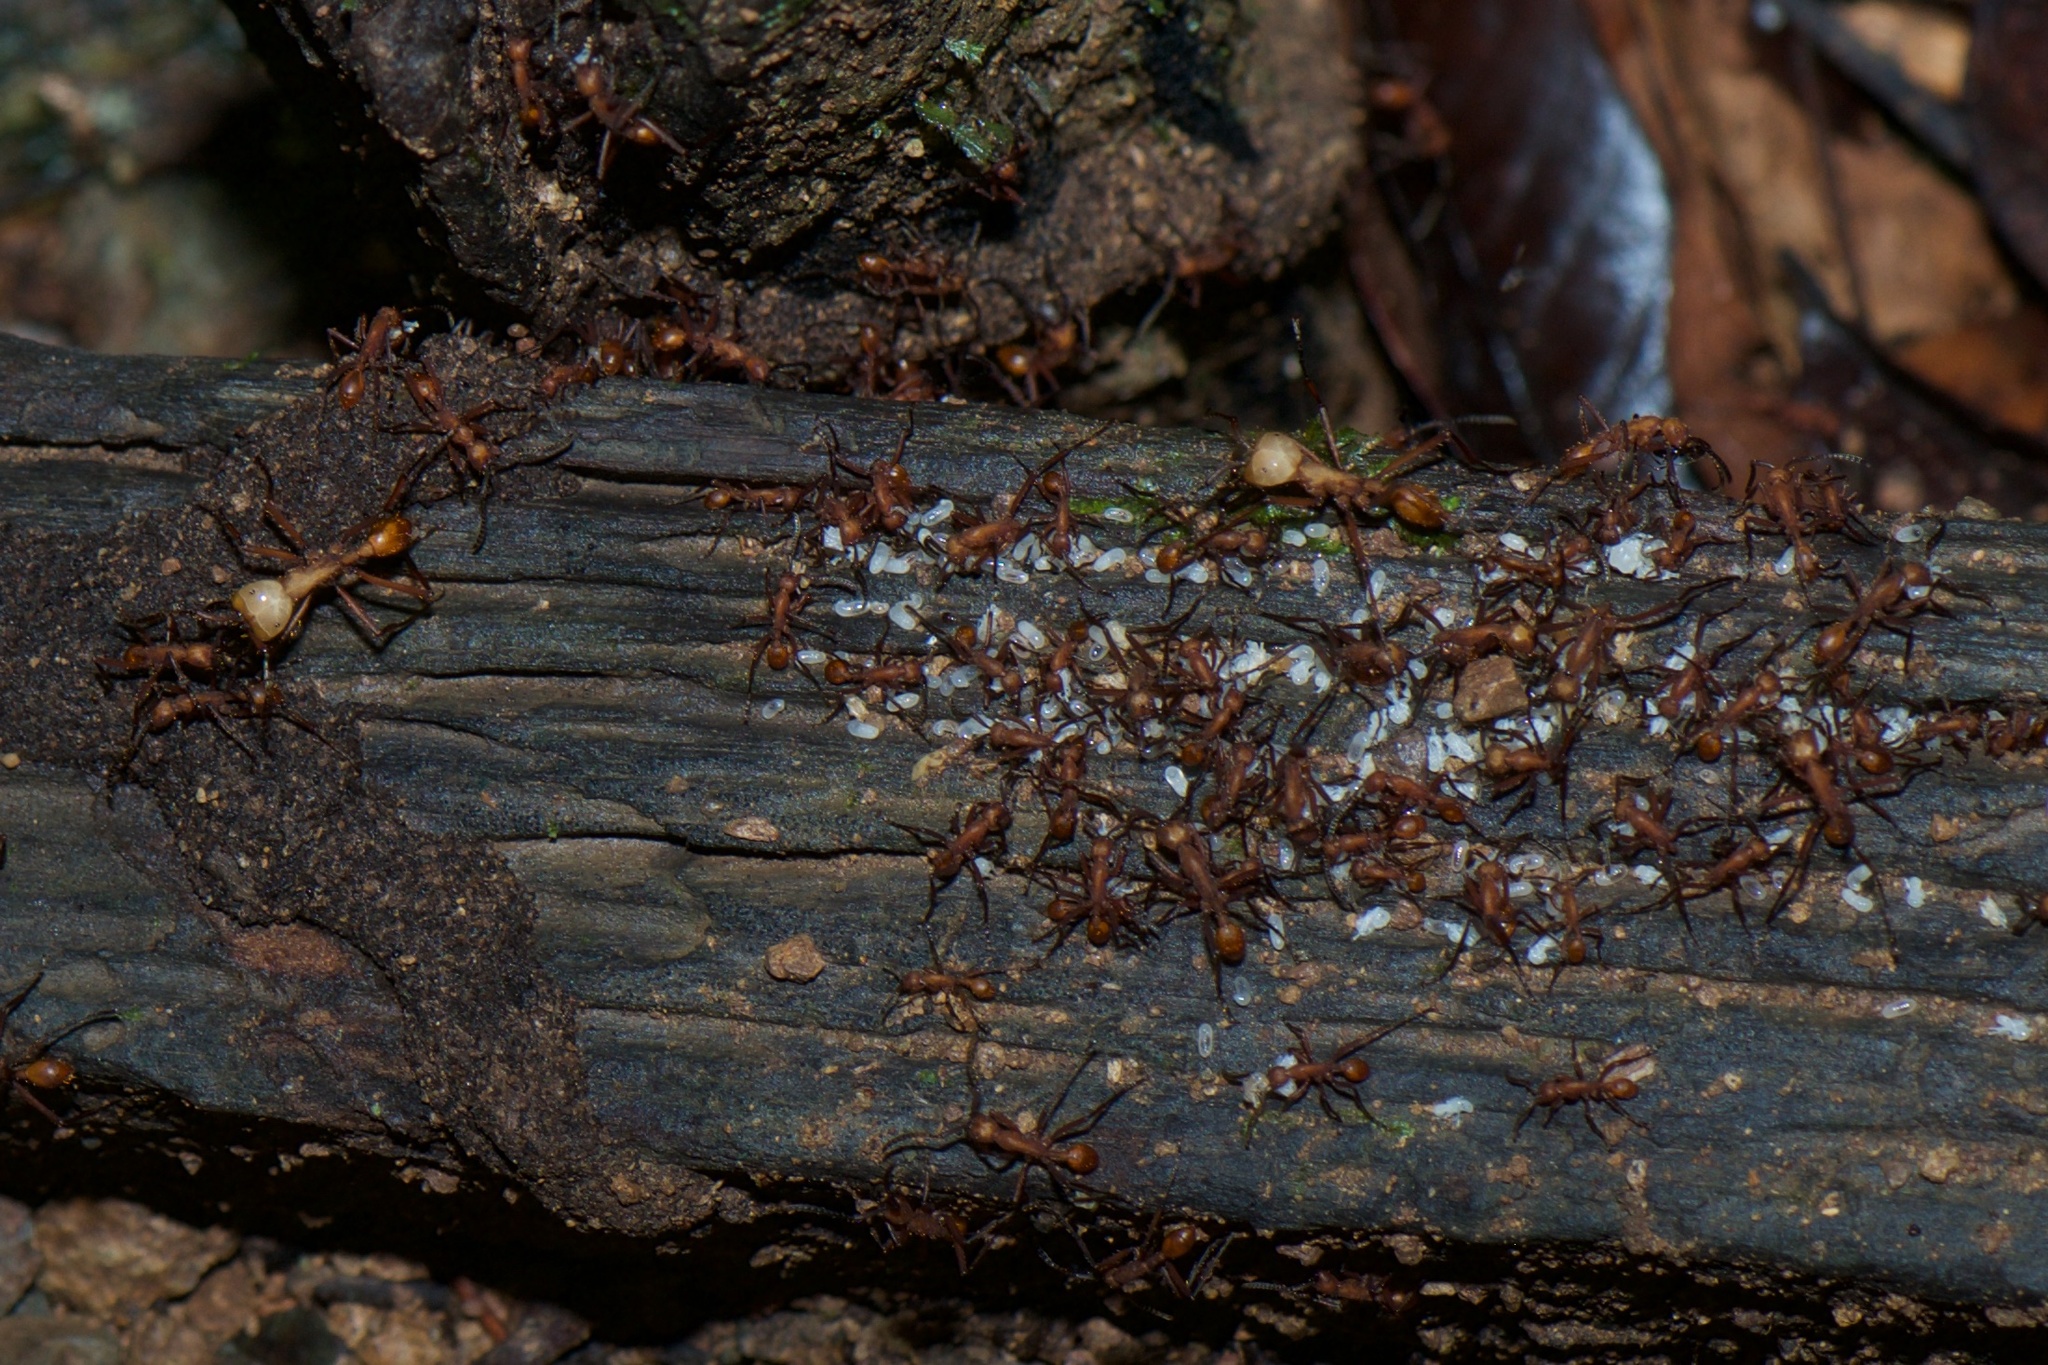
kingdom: Animalia
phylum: Arthropoda
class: Insecta
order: Hymenoptera
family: Formicidae
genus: Eciton
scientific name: Eciton hamatum
